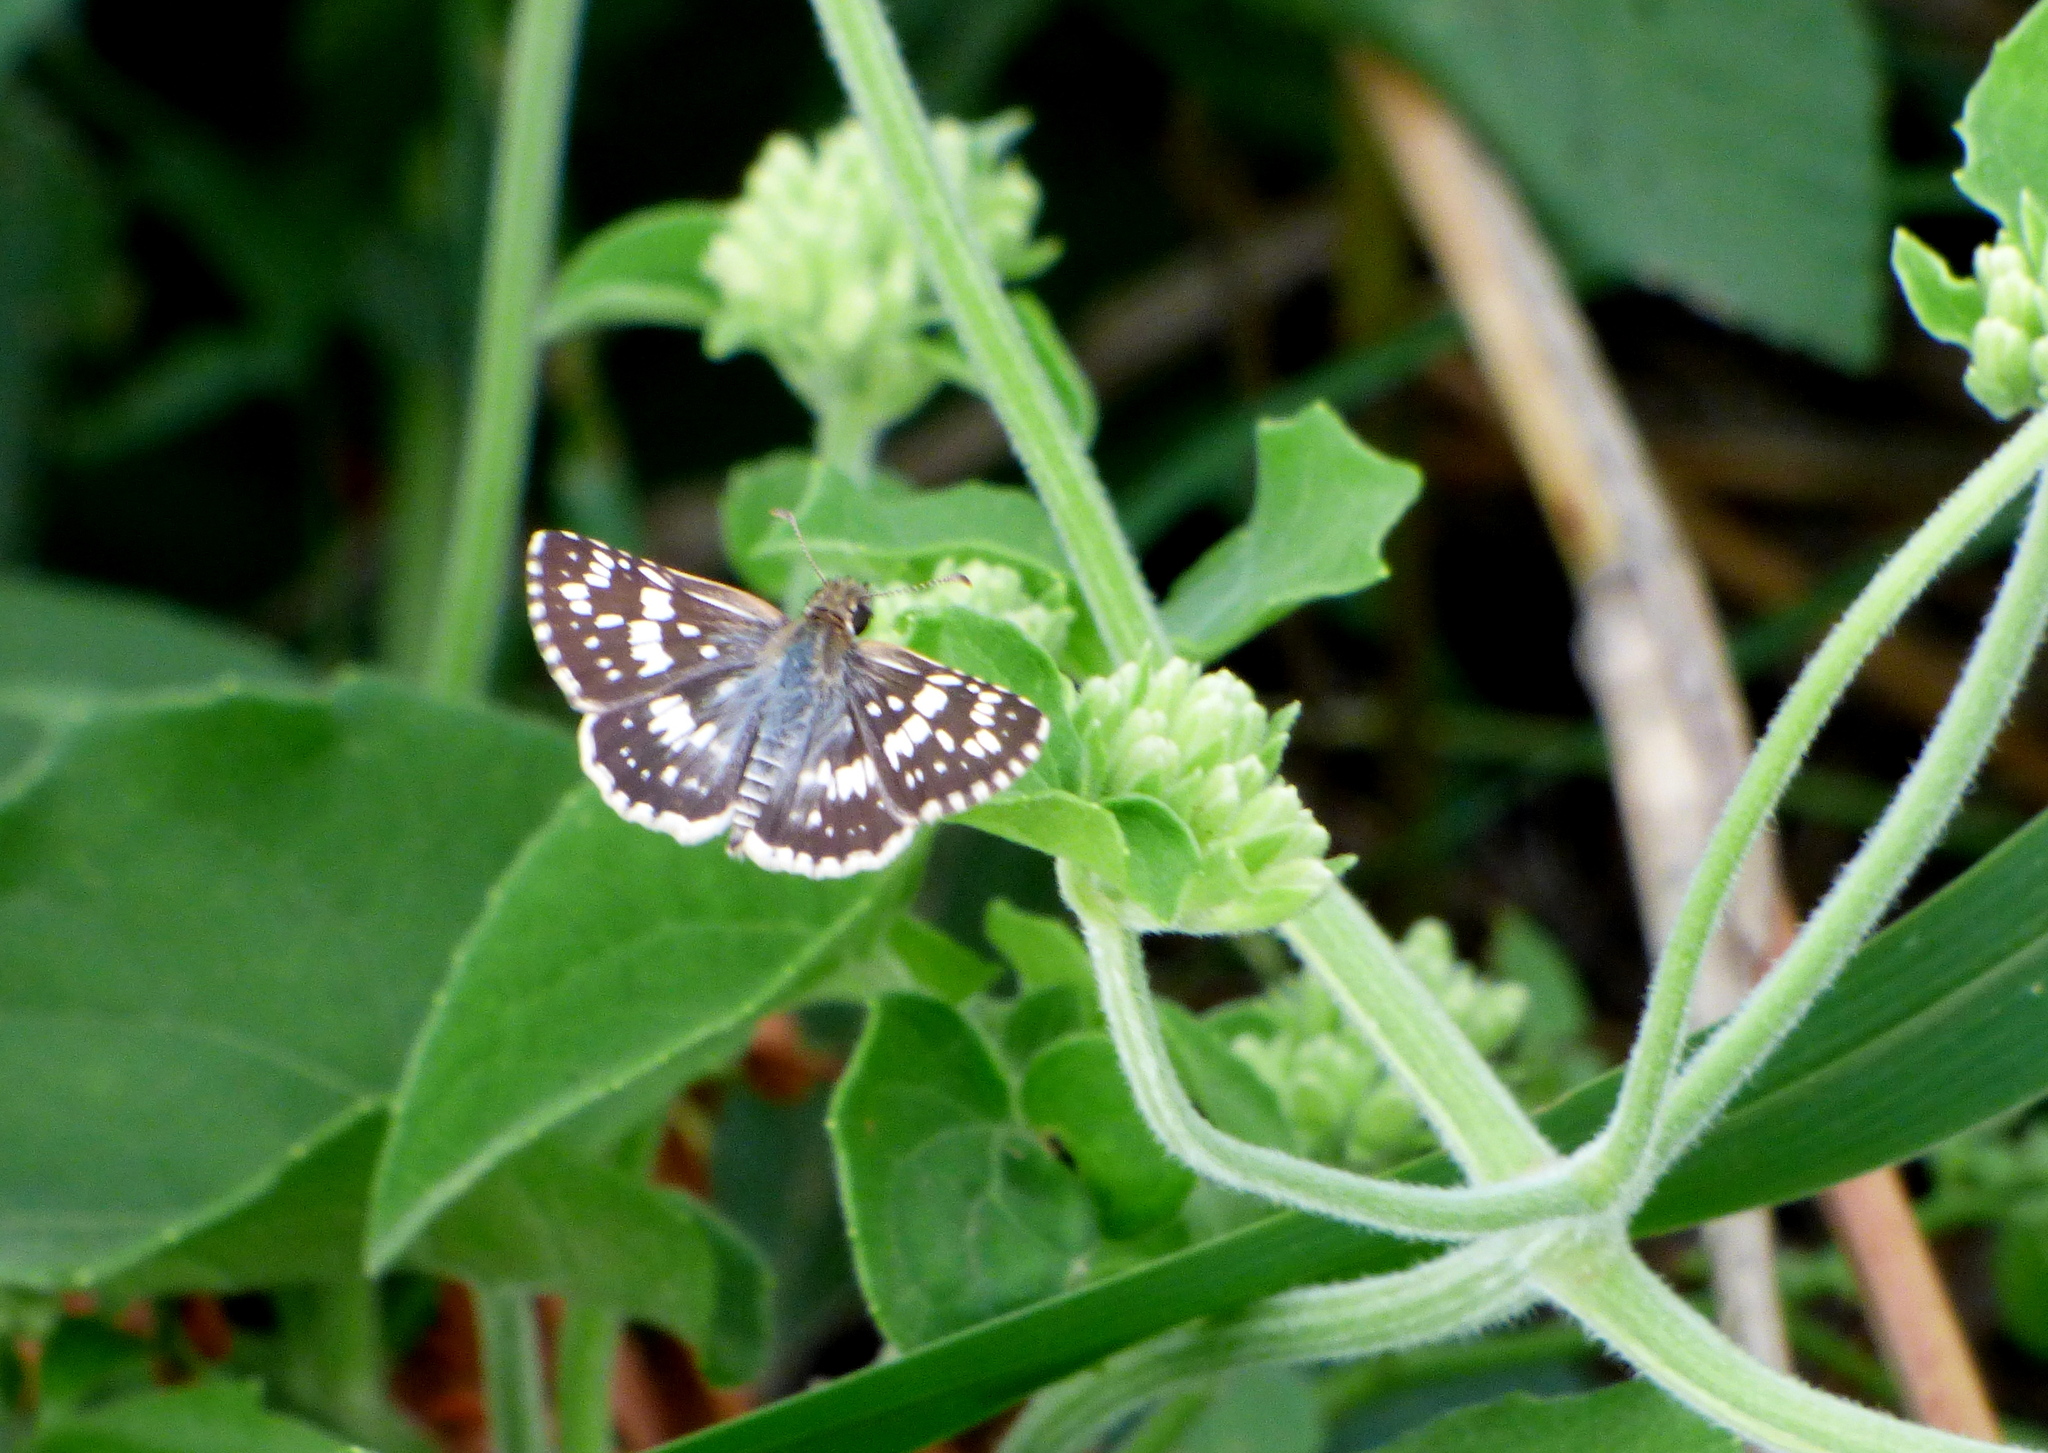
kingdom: Animalia
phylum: Arthropoda
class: Insecta
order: Lepidoptera
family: Hesperiidae
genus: Burnsius
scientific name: Burnsius orcynoides
